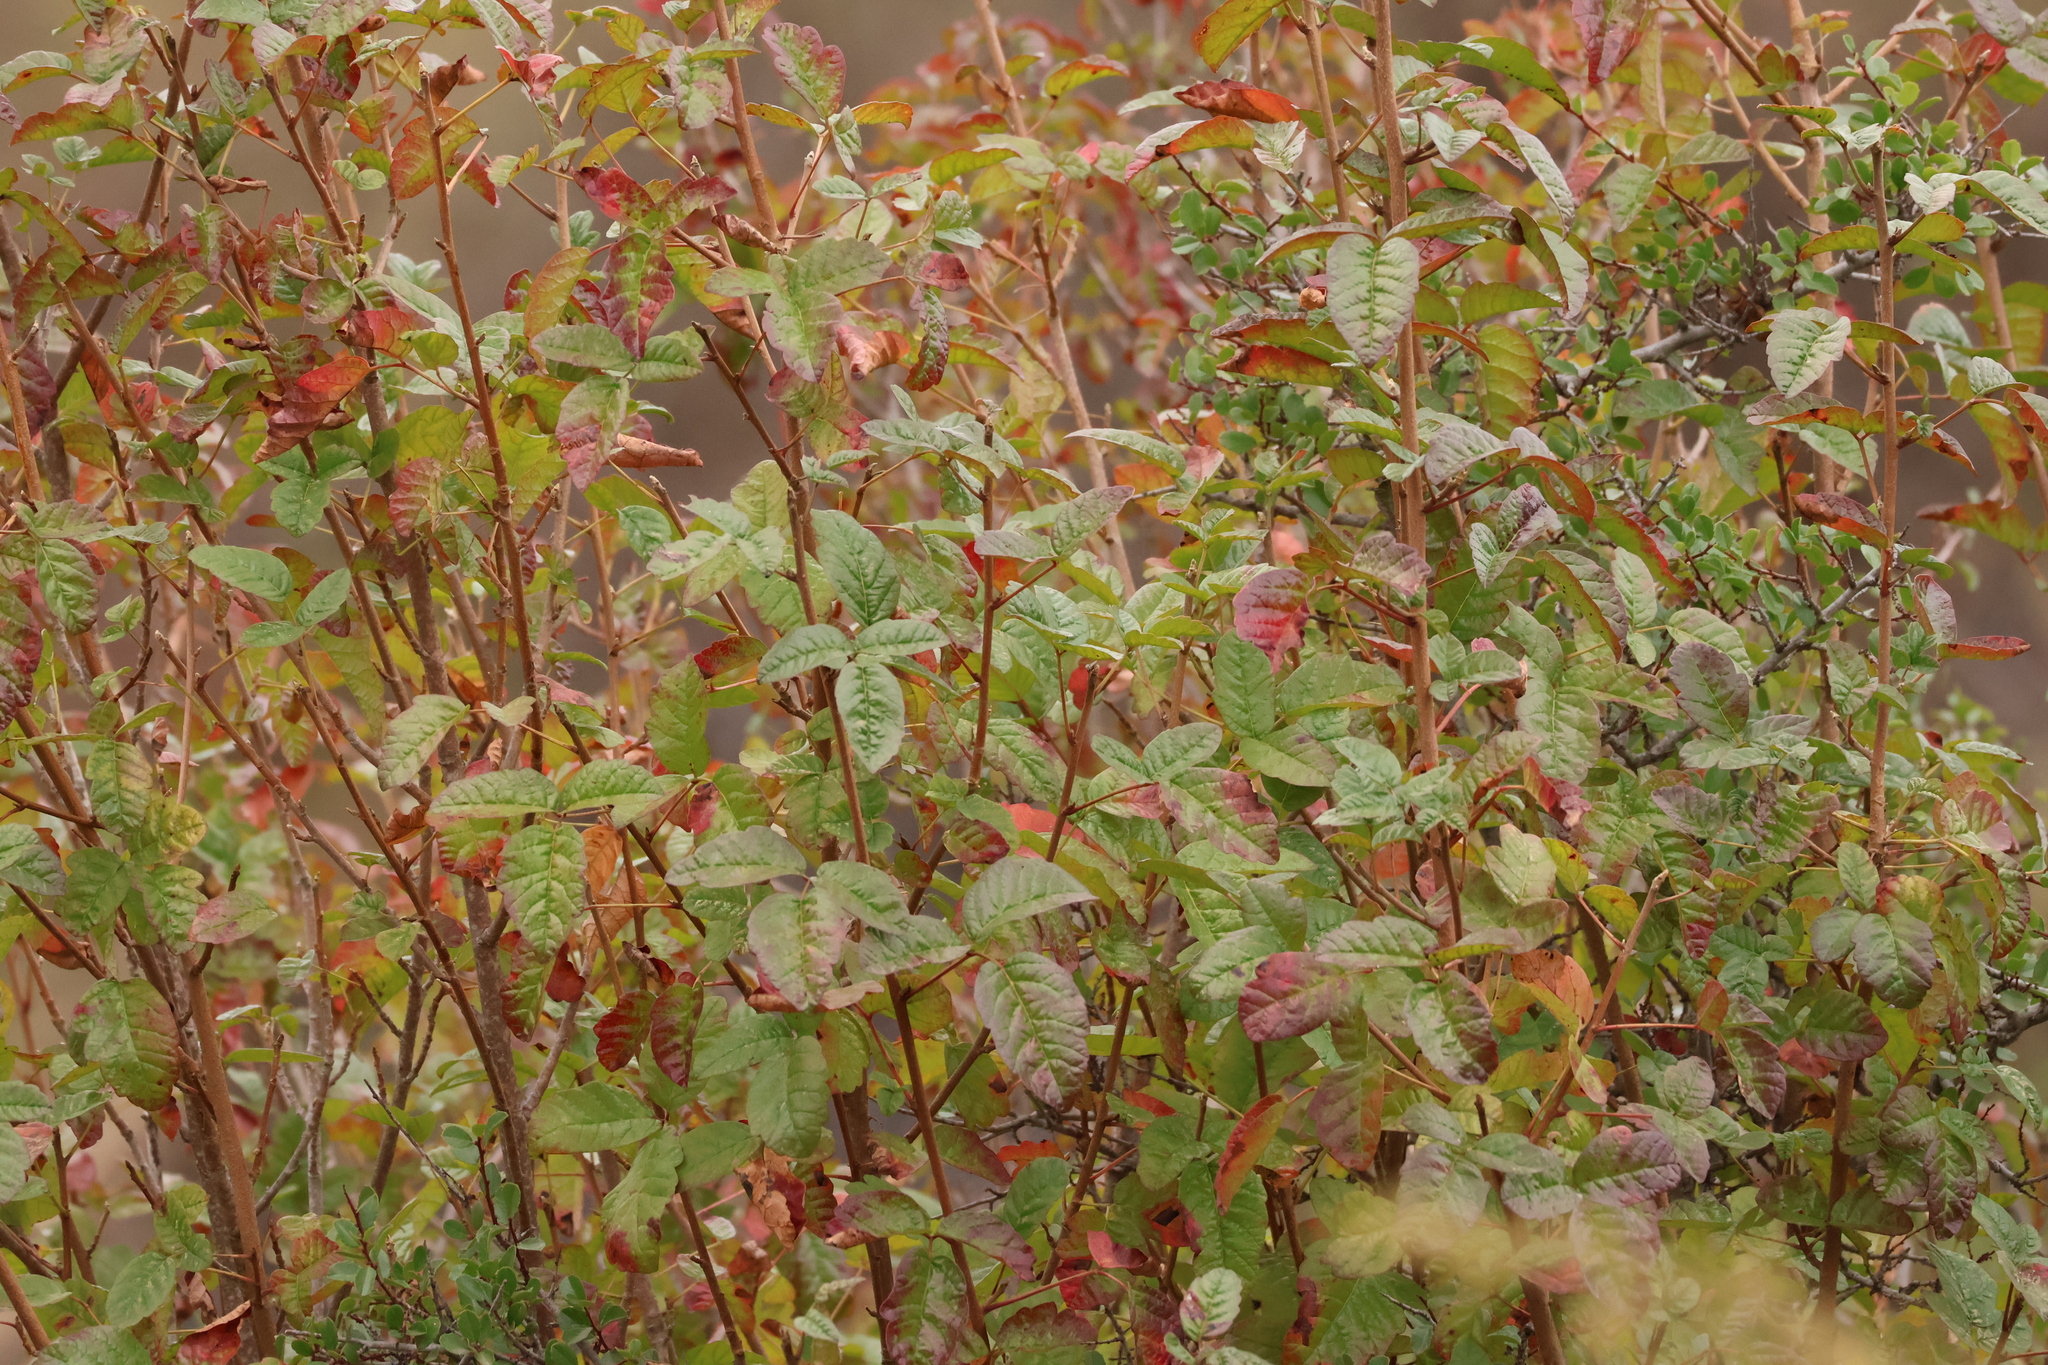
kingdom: Plantae
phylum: Tracheophyta
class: Magnoliopsida
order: Sapindales
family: Anacardiaceae
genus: Toxicodendron
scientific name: Toxicodendron diversilobum
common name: Pacific poison-oak
